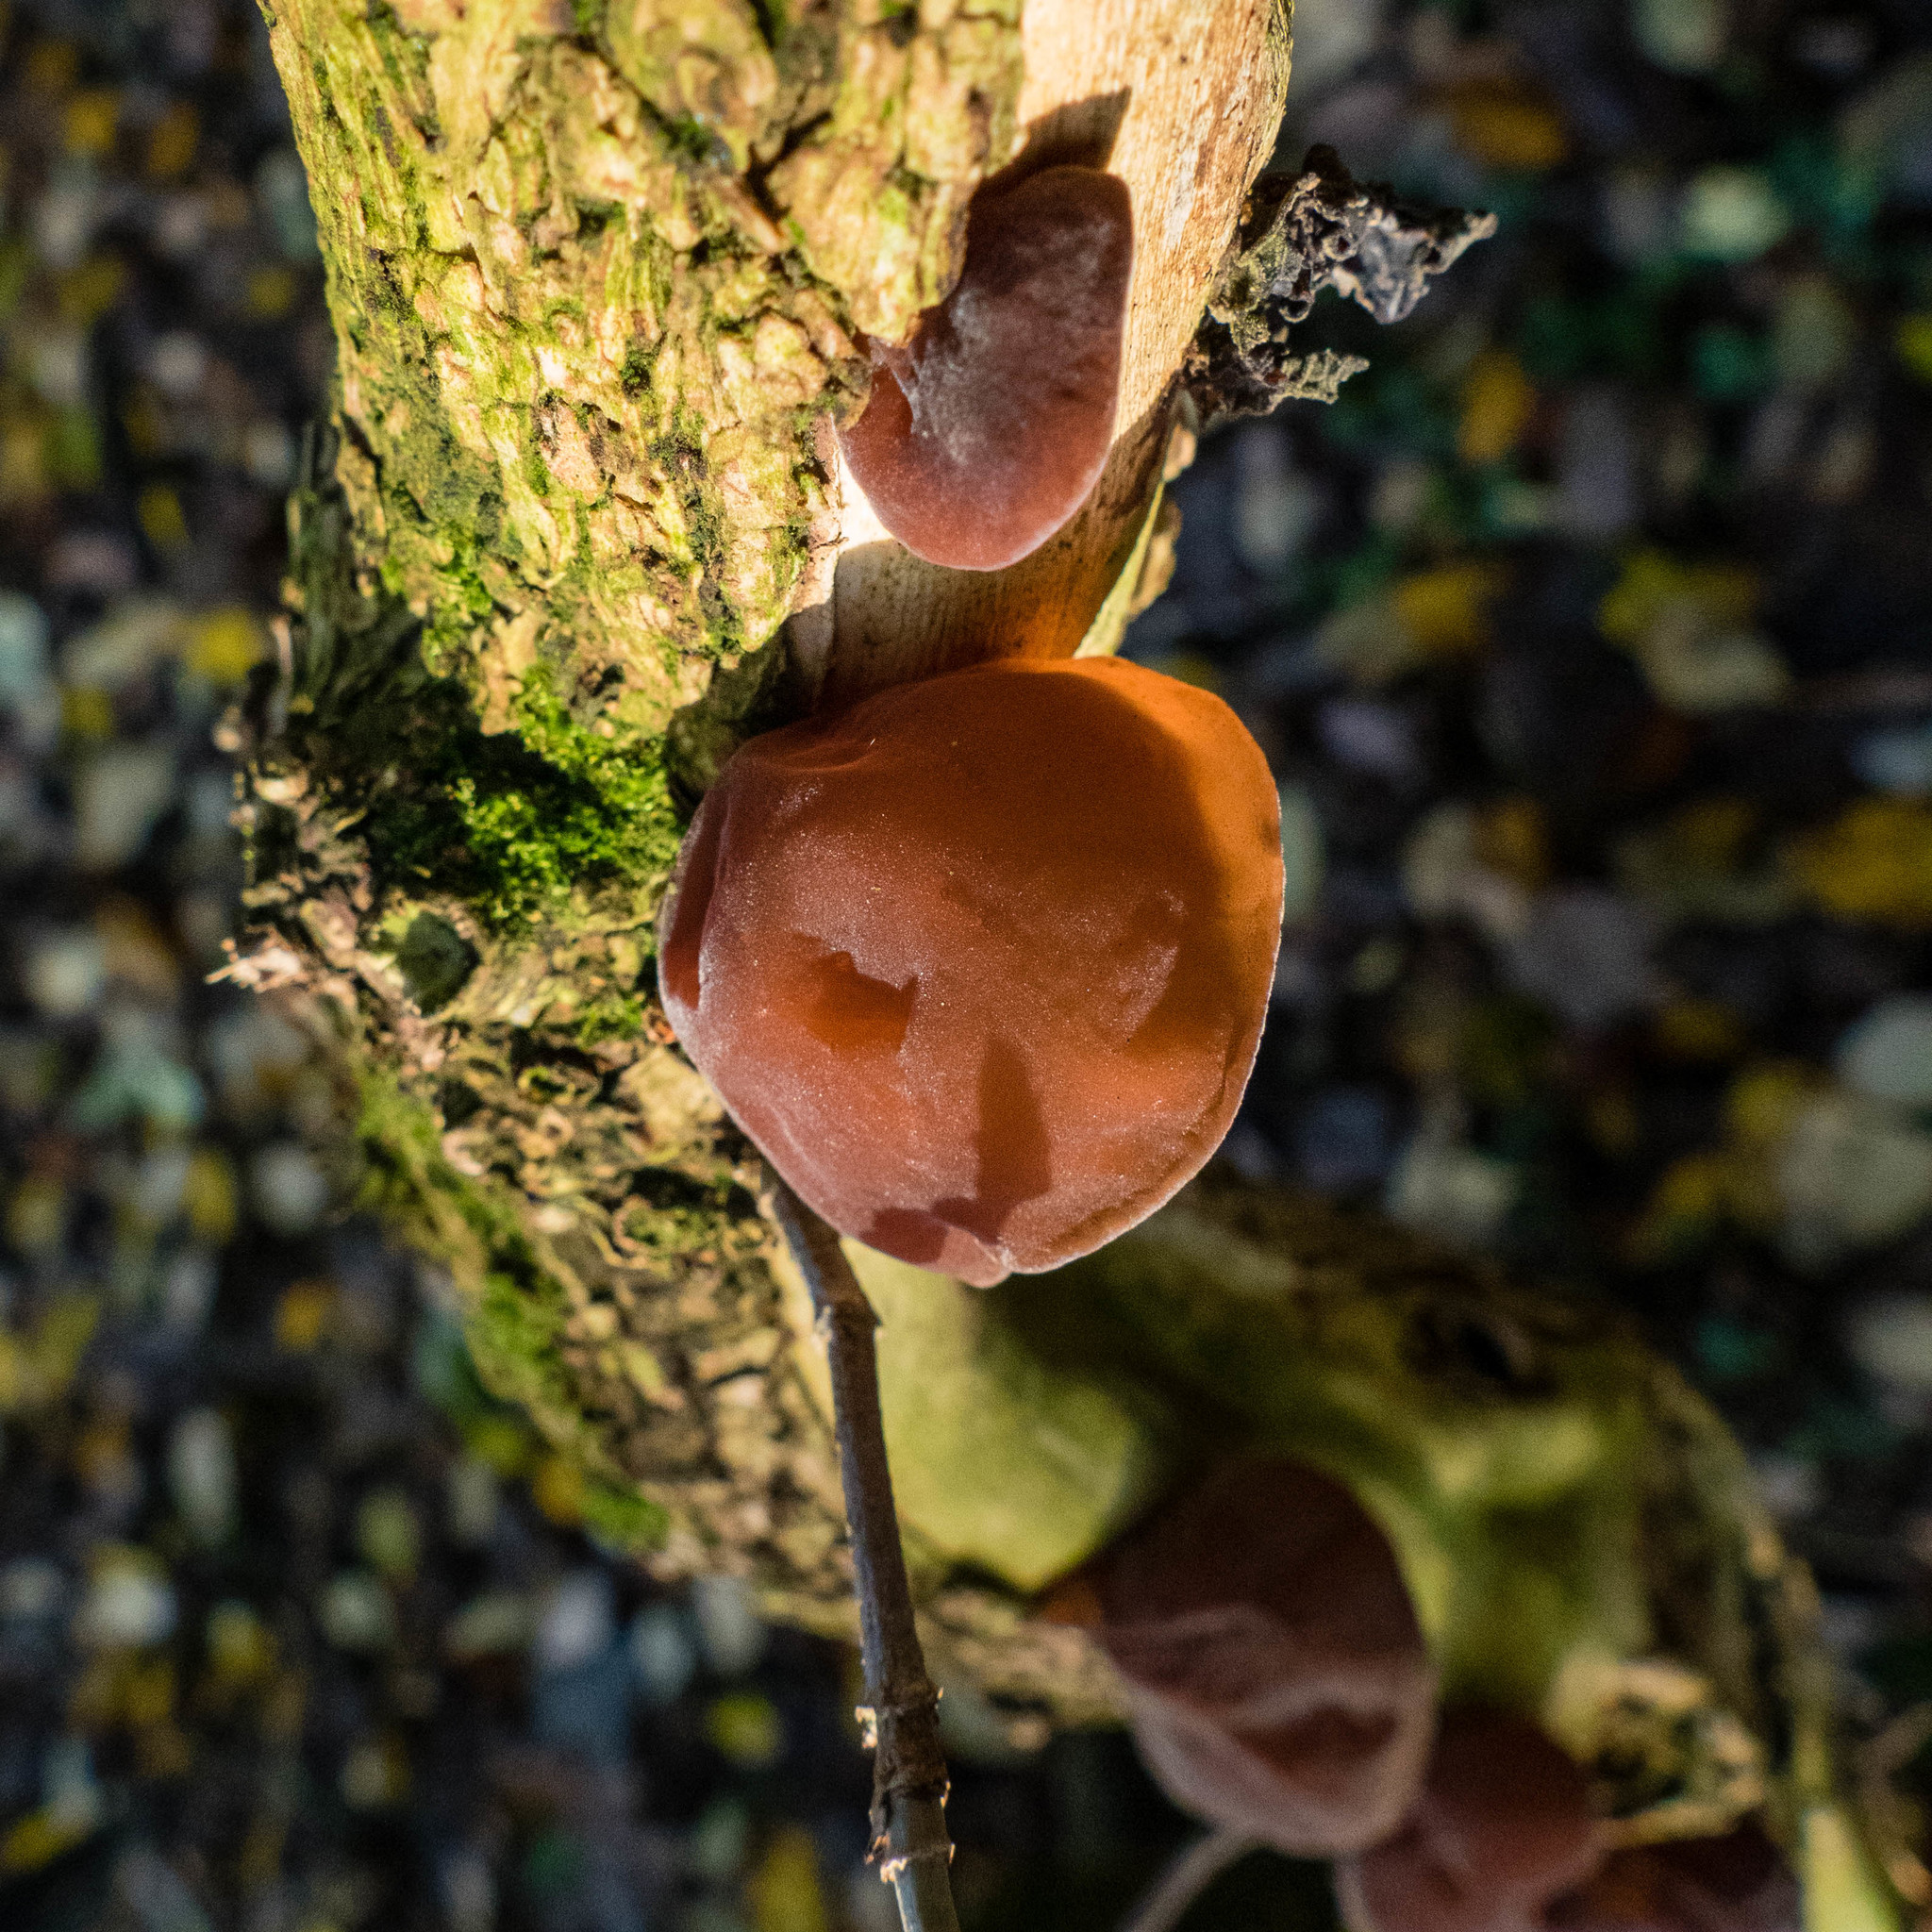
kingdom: Fungi
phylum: Basidiomycota
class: Agaricomycetes
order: Auriculariales
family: Auriculariaceae
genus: Auricularia
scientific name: Auricularia auricula-judae
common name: Jelly ear
